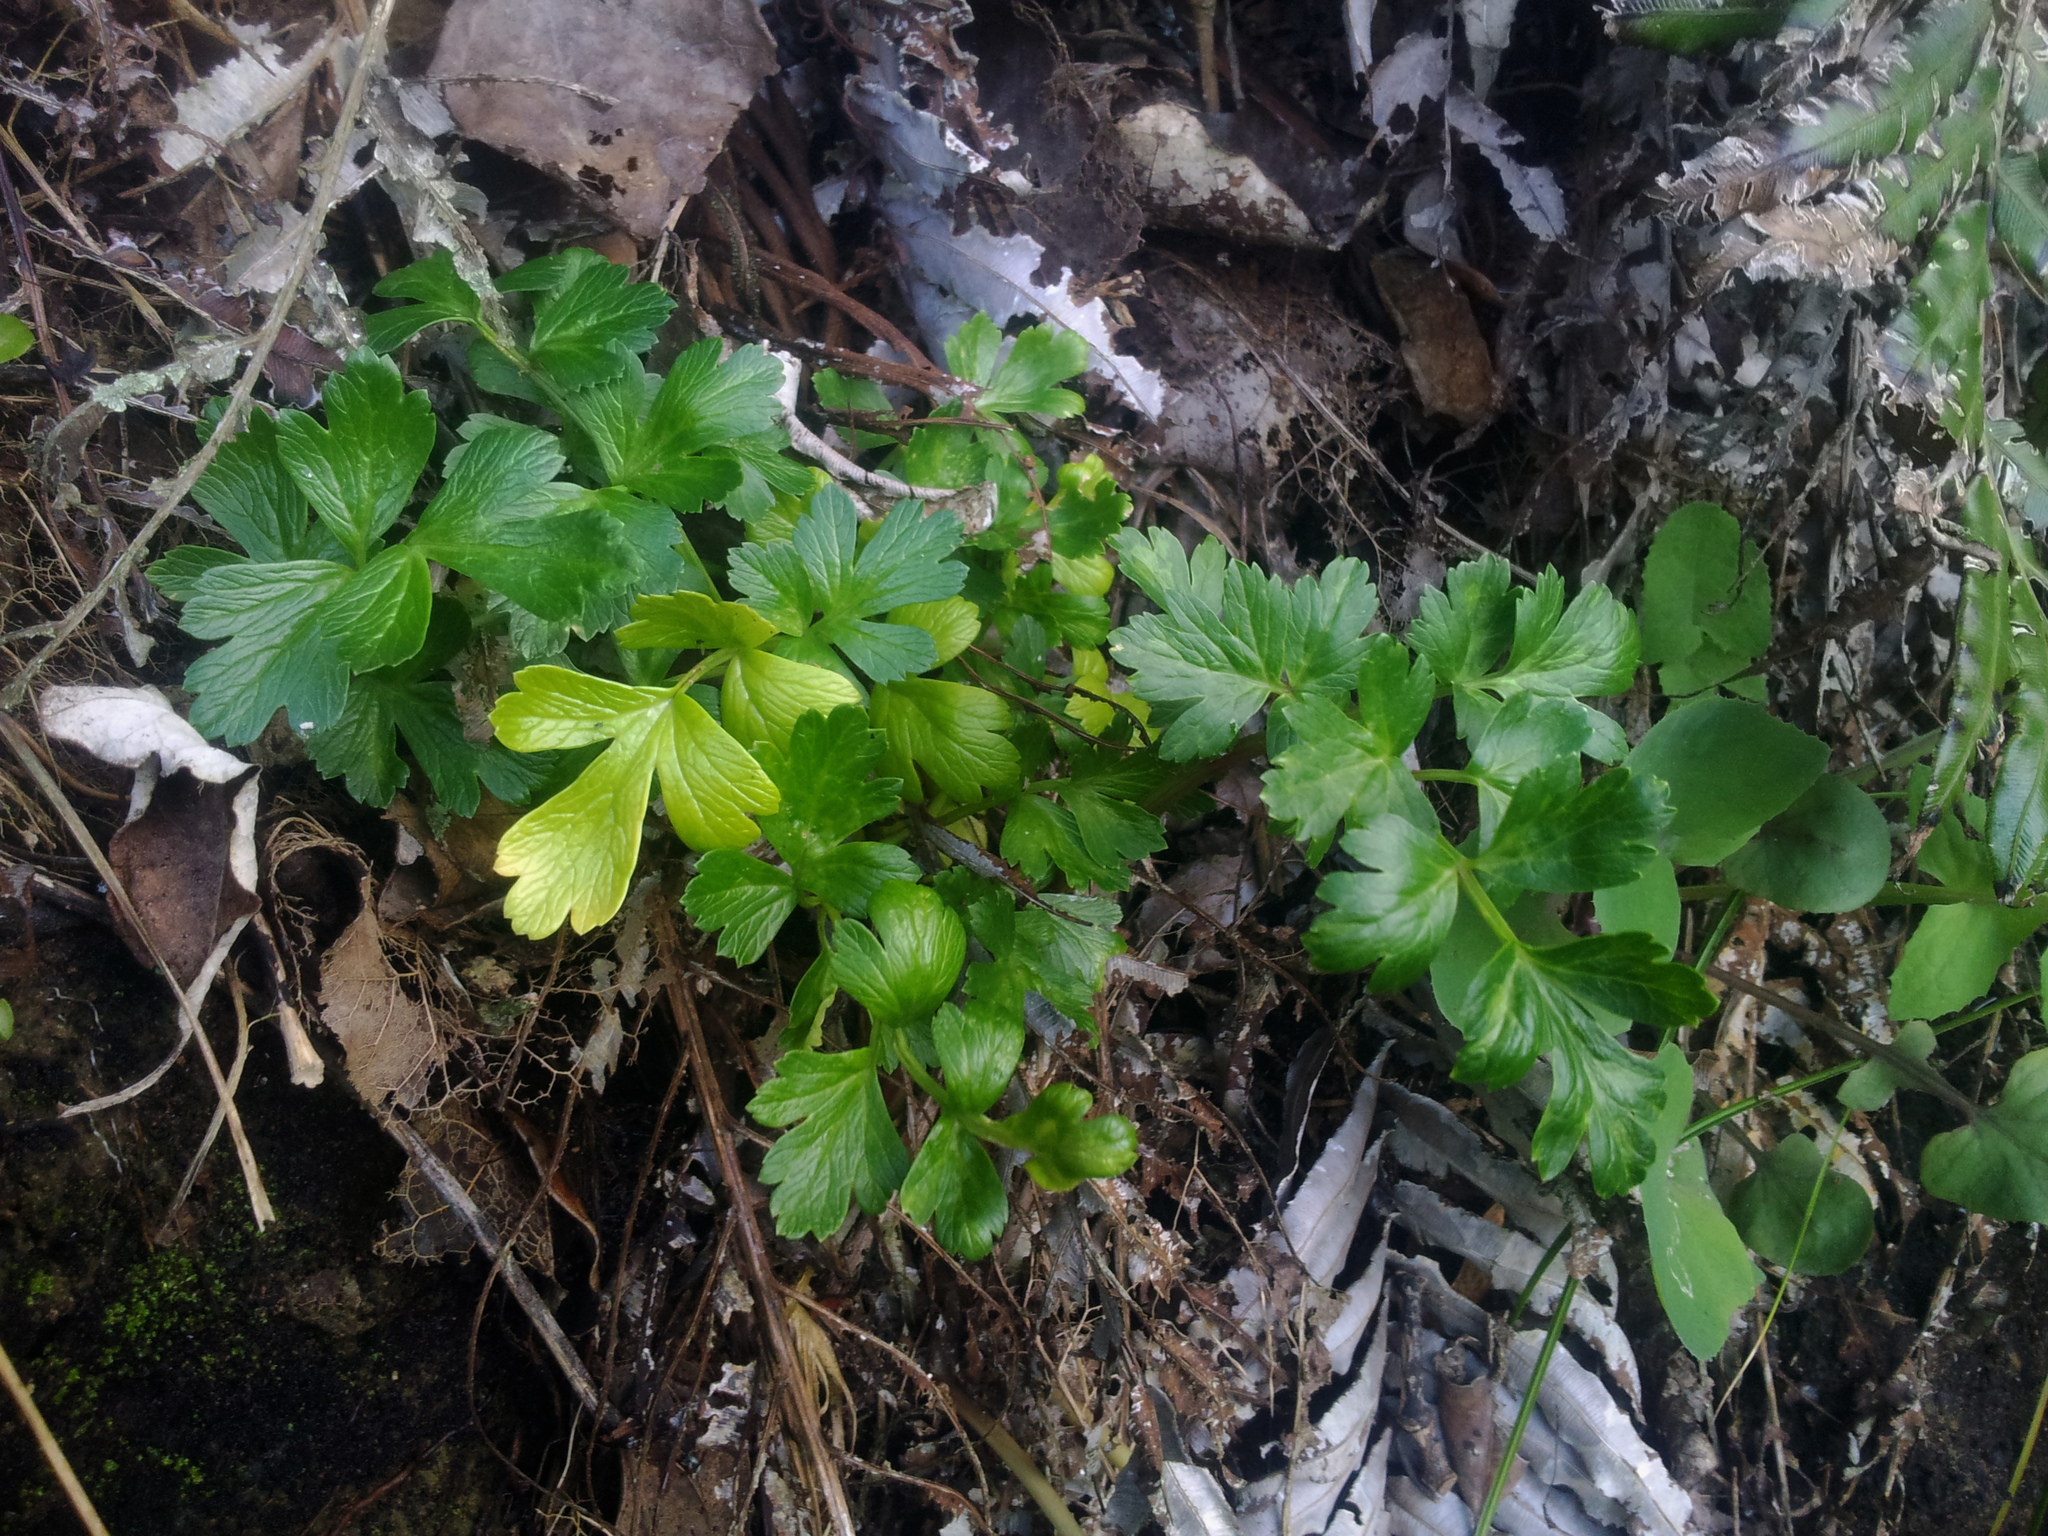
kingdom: Plantae
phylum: Tracheophyta
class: Magnoliopsida
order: Apiales
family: Apiaceae
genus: Apium
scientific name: Apium prostratum
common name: Prostrate marshwort
